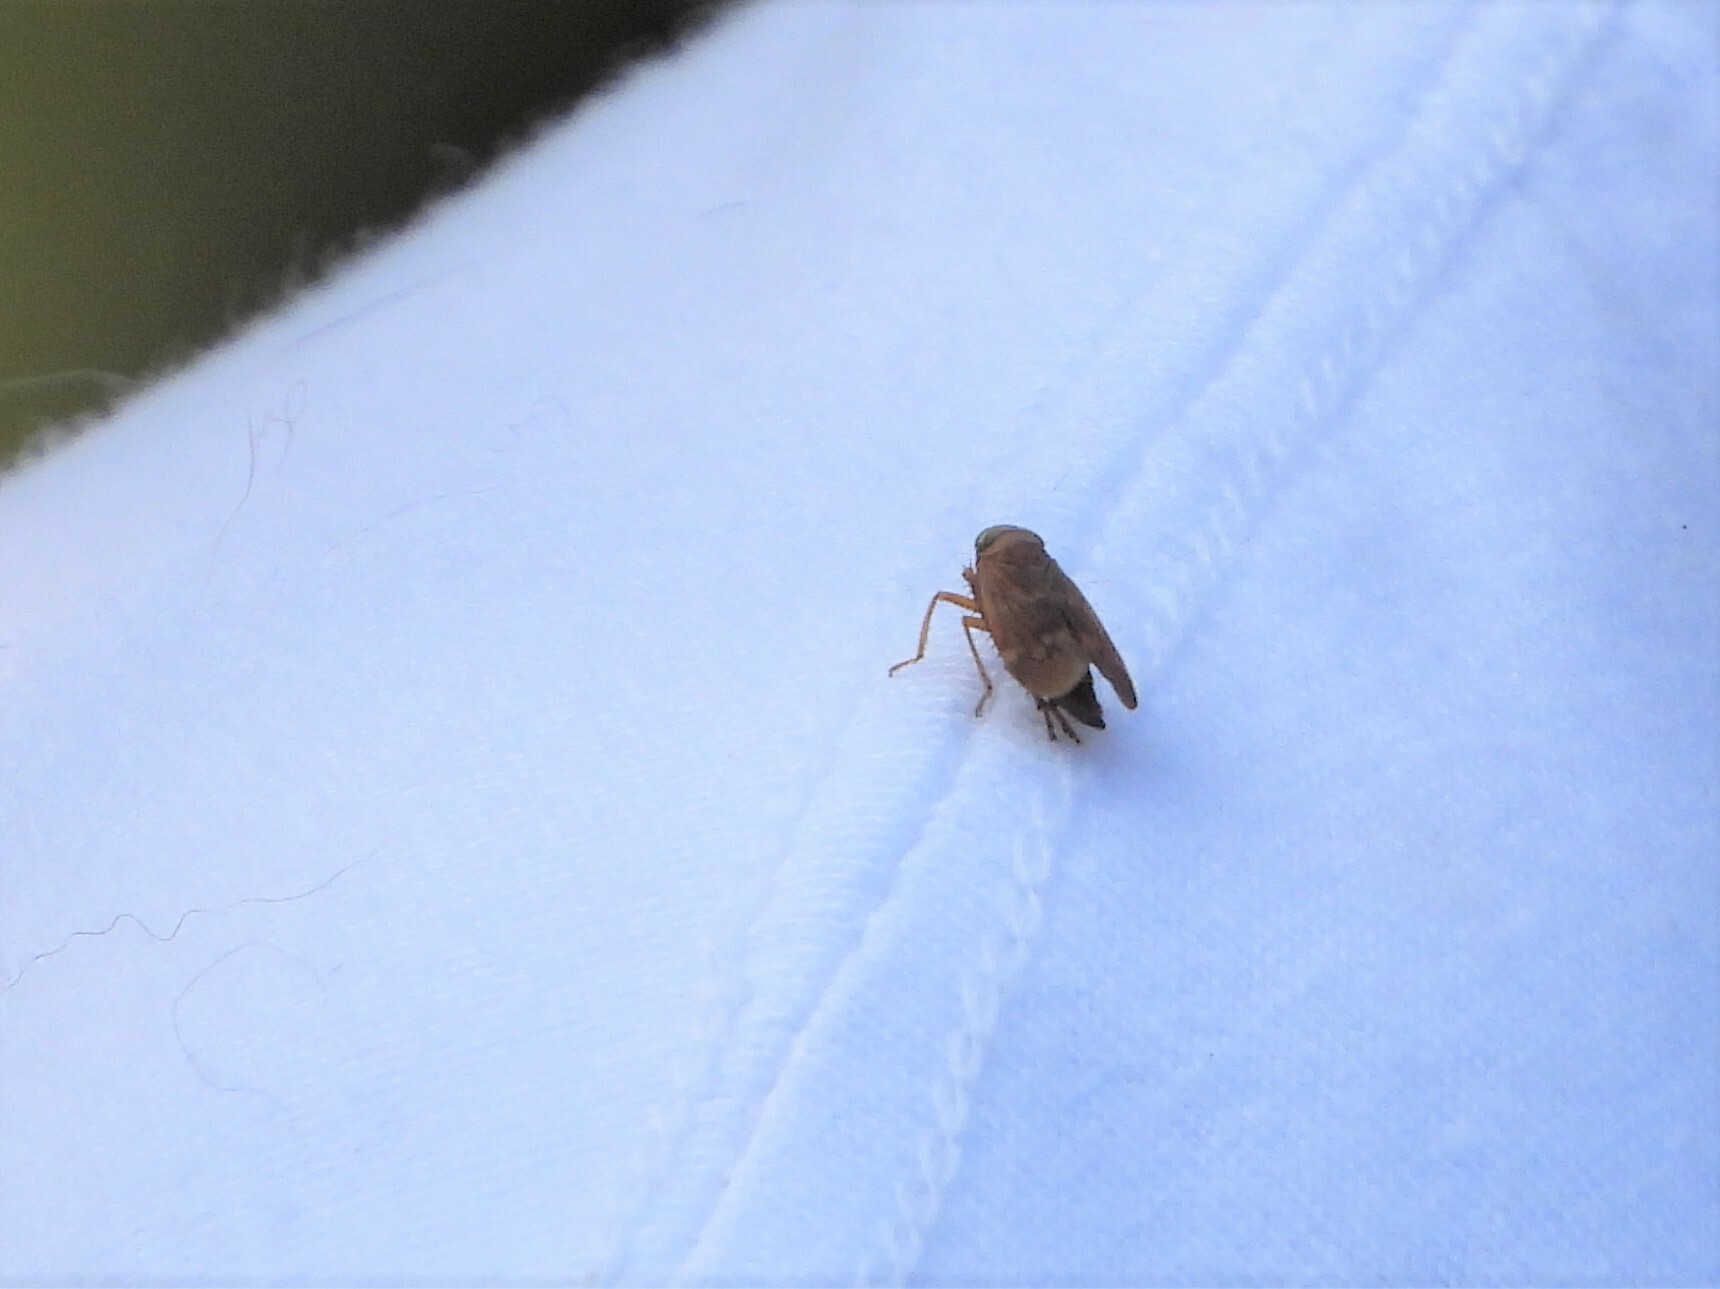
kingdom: Animalia
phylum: Arthropoda
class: Insecta
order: Hemiptera
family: Cicadellidae
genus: Jikradia
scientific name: Jikradia olitoria
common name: Coppery leafhopper
